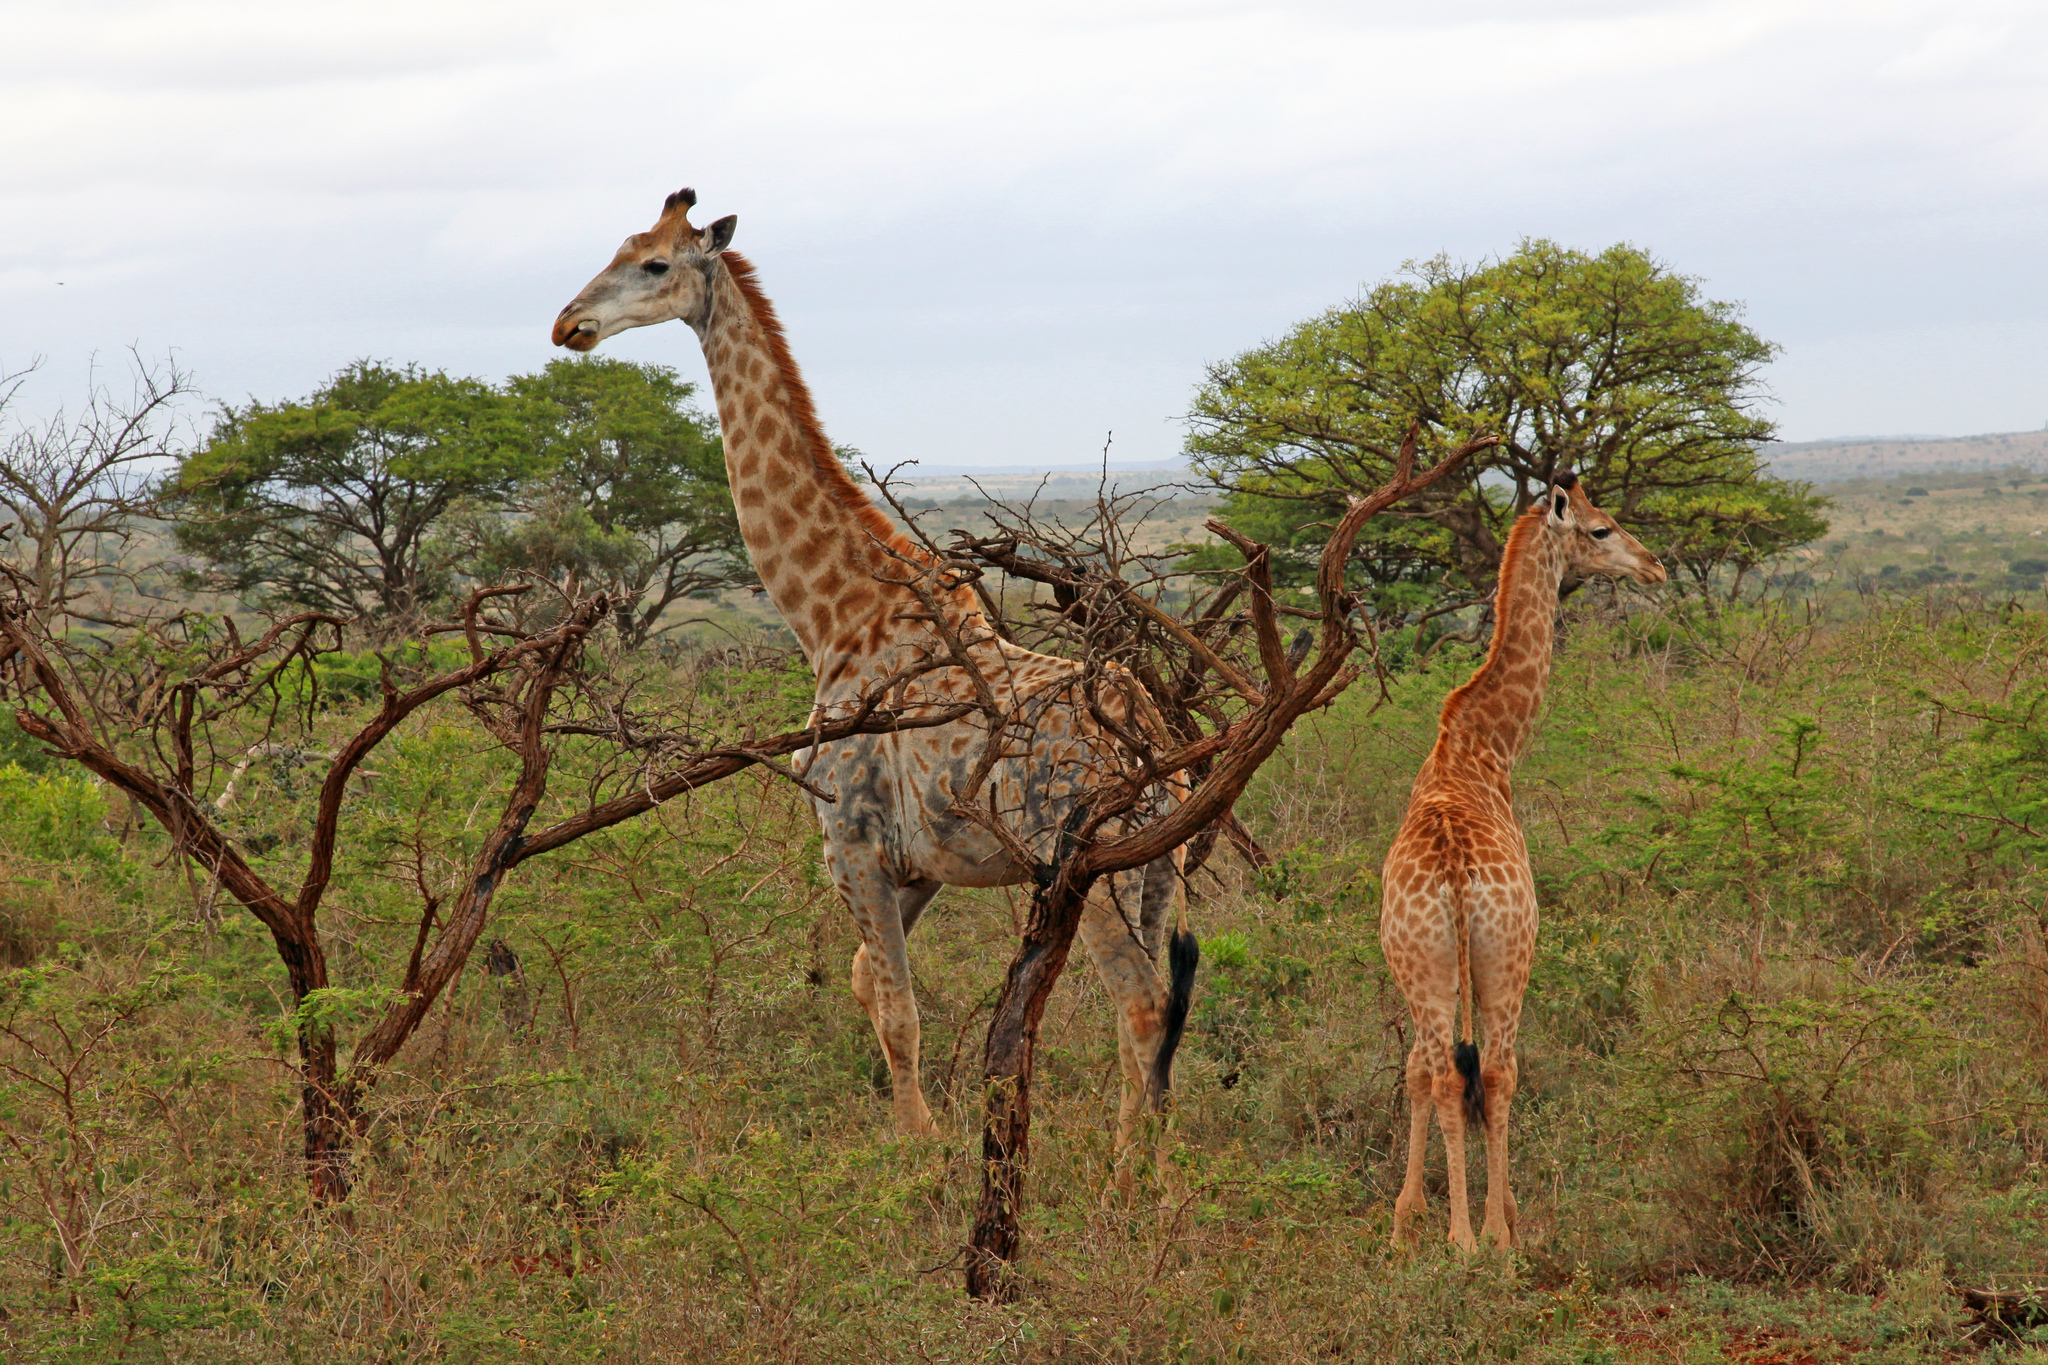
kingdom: Animalia
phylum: Chordata
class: Mammalia
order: Artiodactyla
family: Giraffidae
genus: Giraffa
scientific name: Giraffa giraffa
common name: Southern giraffe
